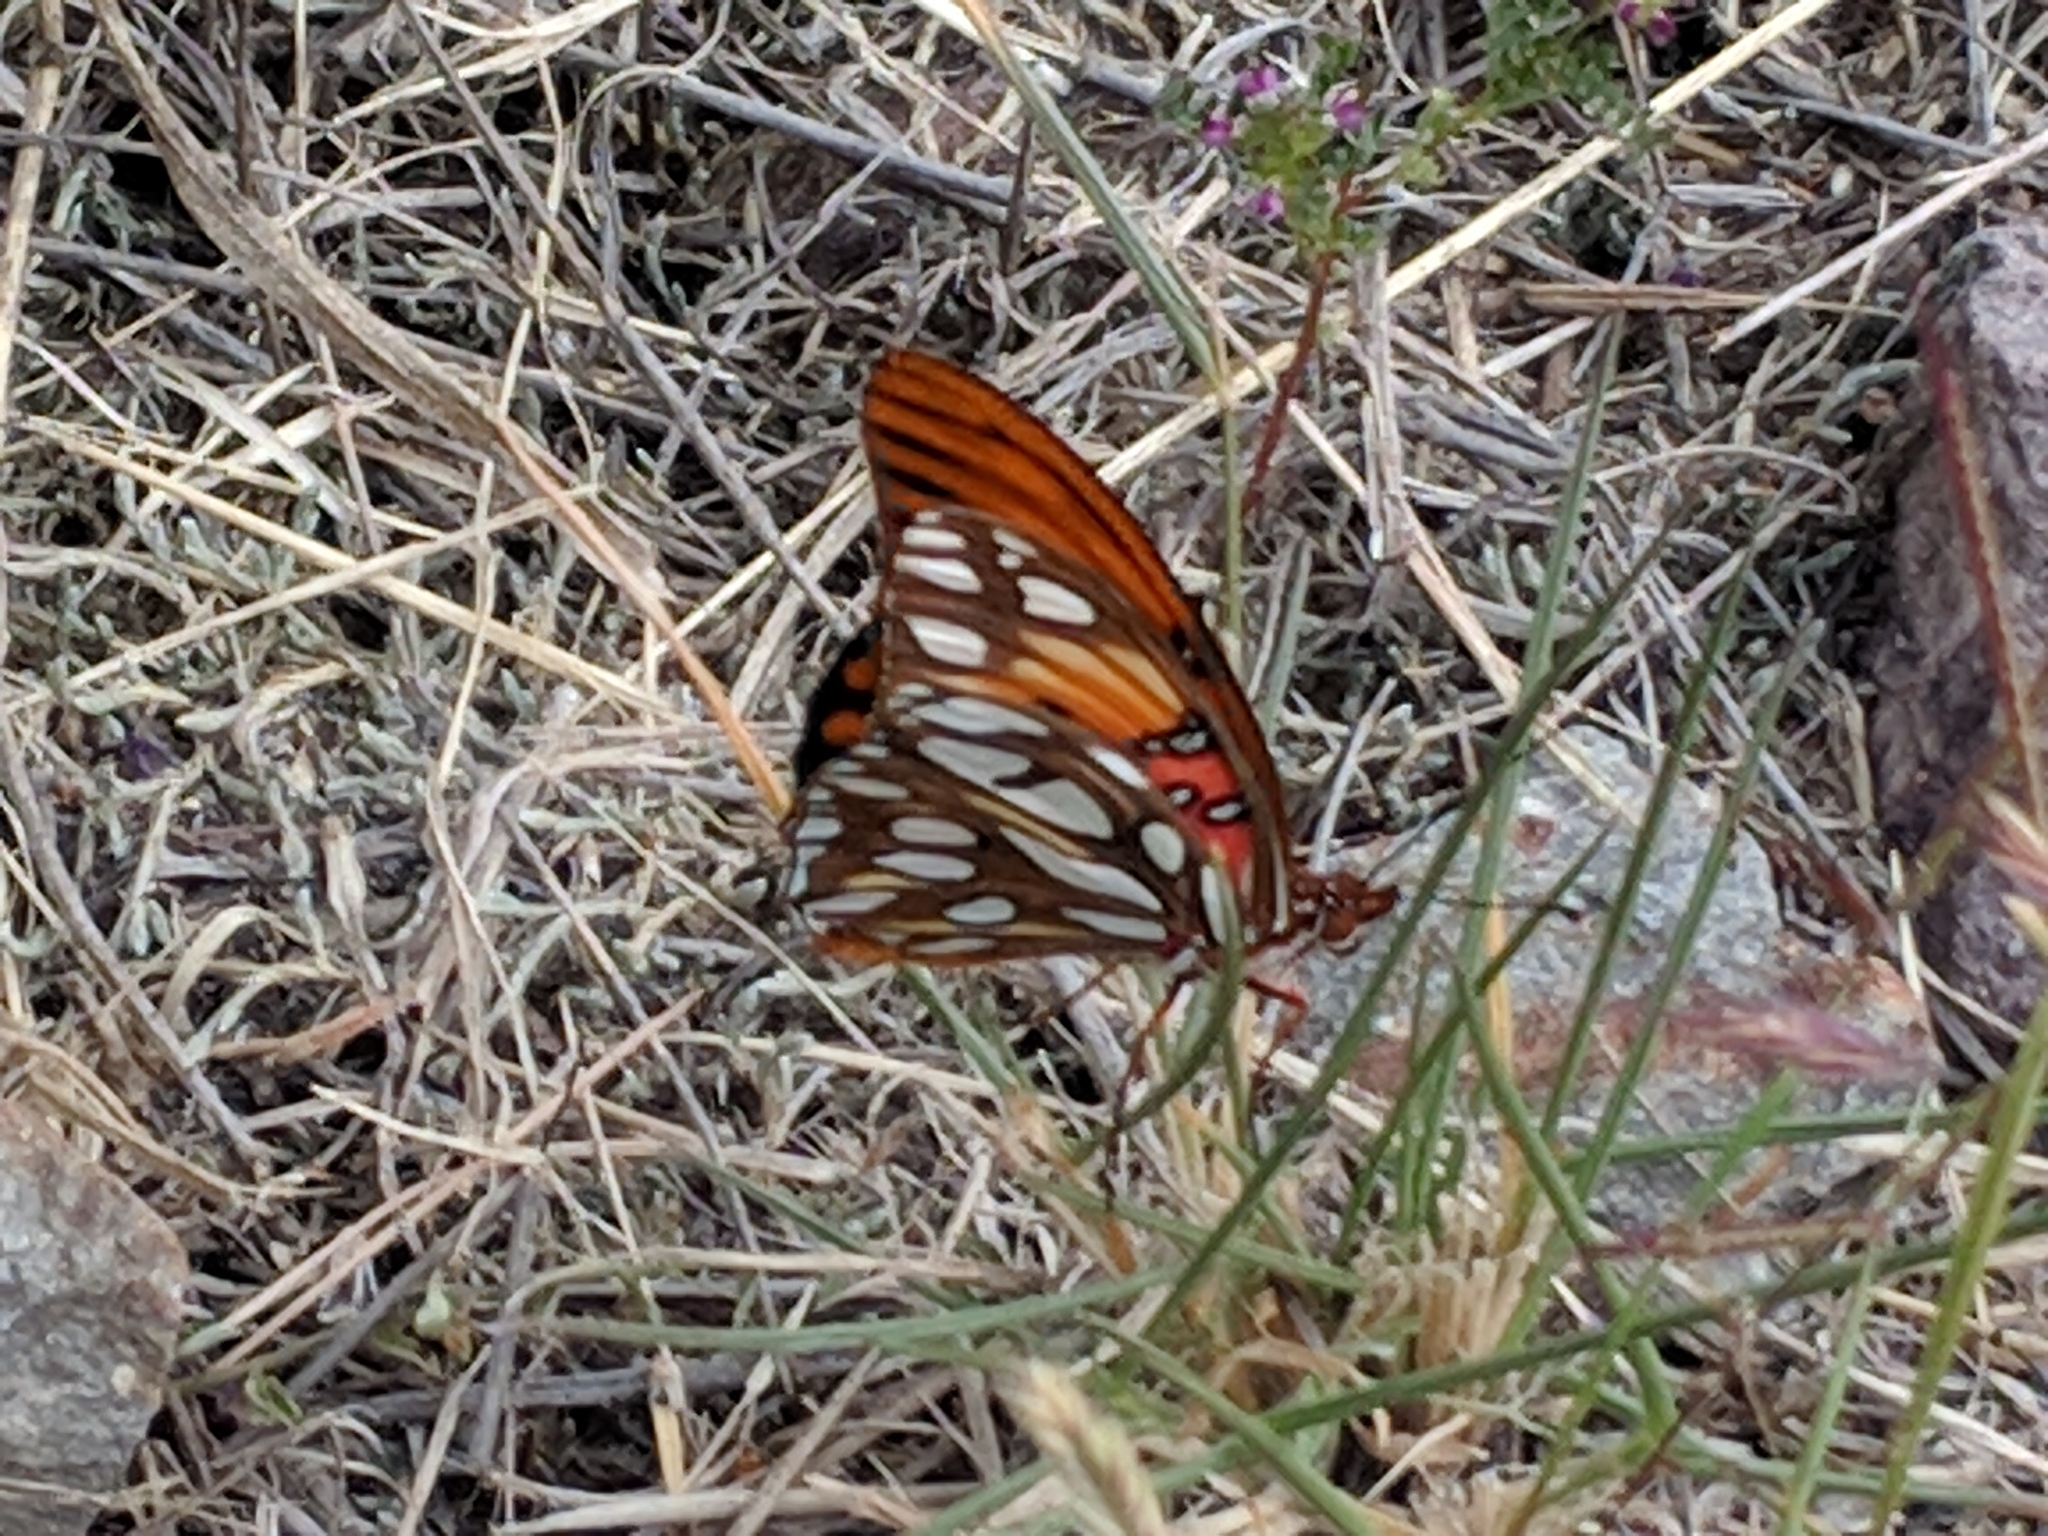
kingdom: Animalia
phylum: Arthropoda
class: Insecta
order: Lepidoptera
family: Nymphalidae
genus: Dione
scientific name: Dione vanillae
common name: Gulf fritillary
